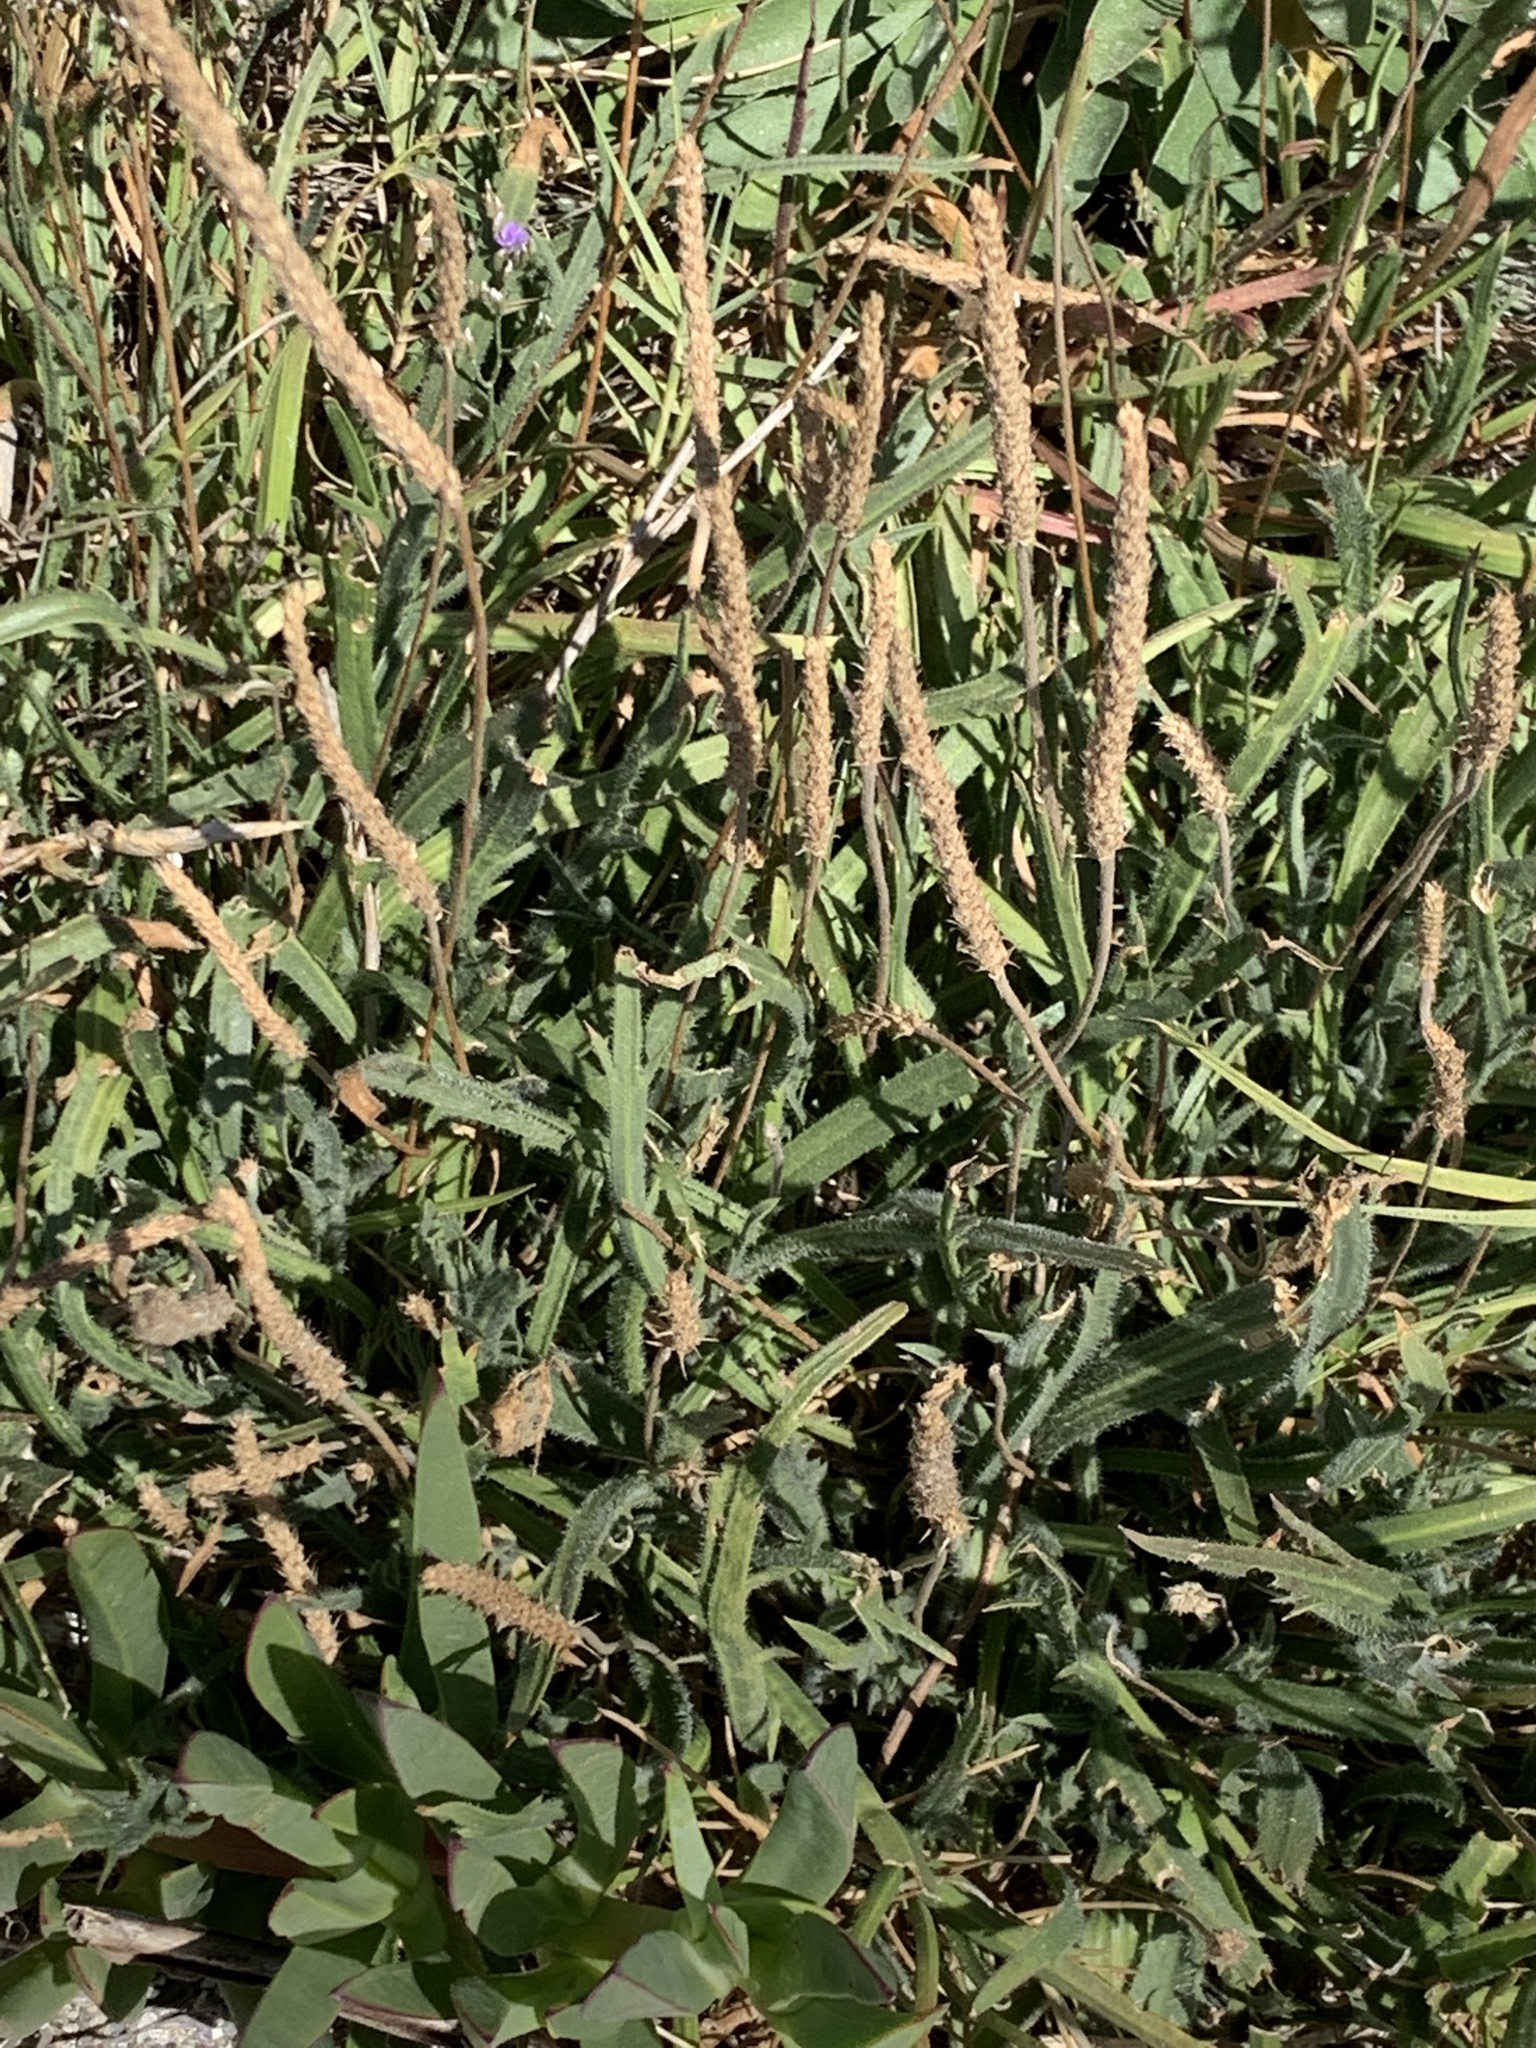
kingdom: Plantae
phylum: Tracheophyta
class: Magnoliopsida
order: Lamiales
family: Plantaginaceae
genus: Plantago
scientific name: Plantago coronopus
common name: Buck's-horn plantain
